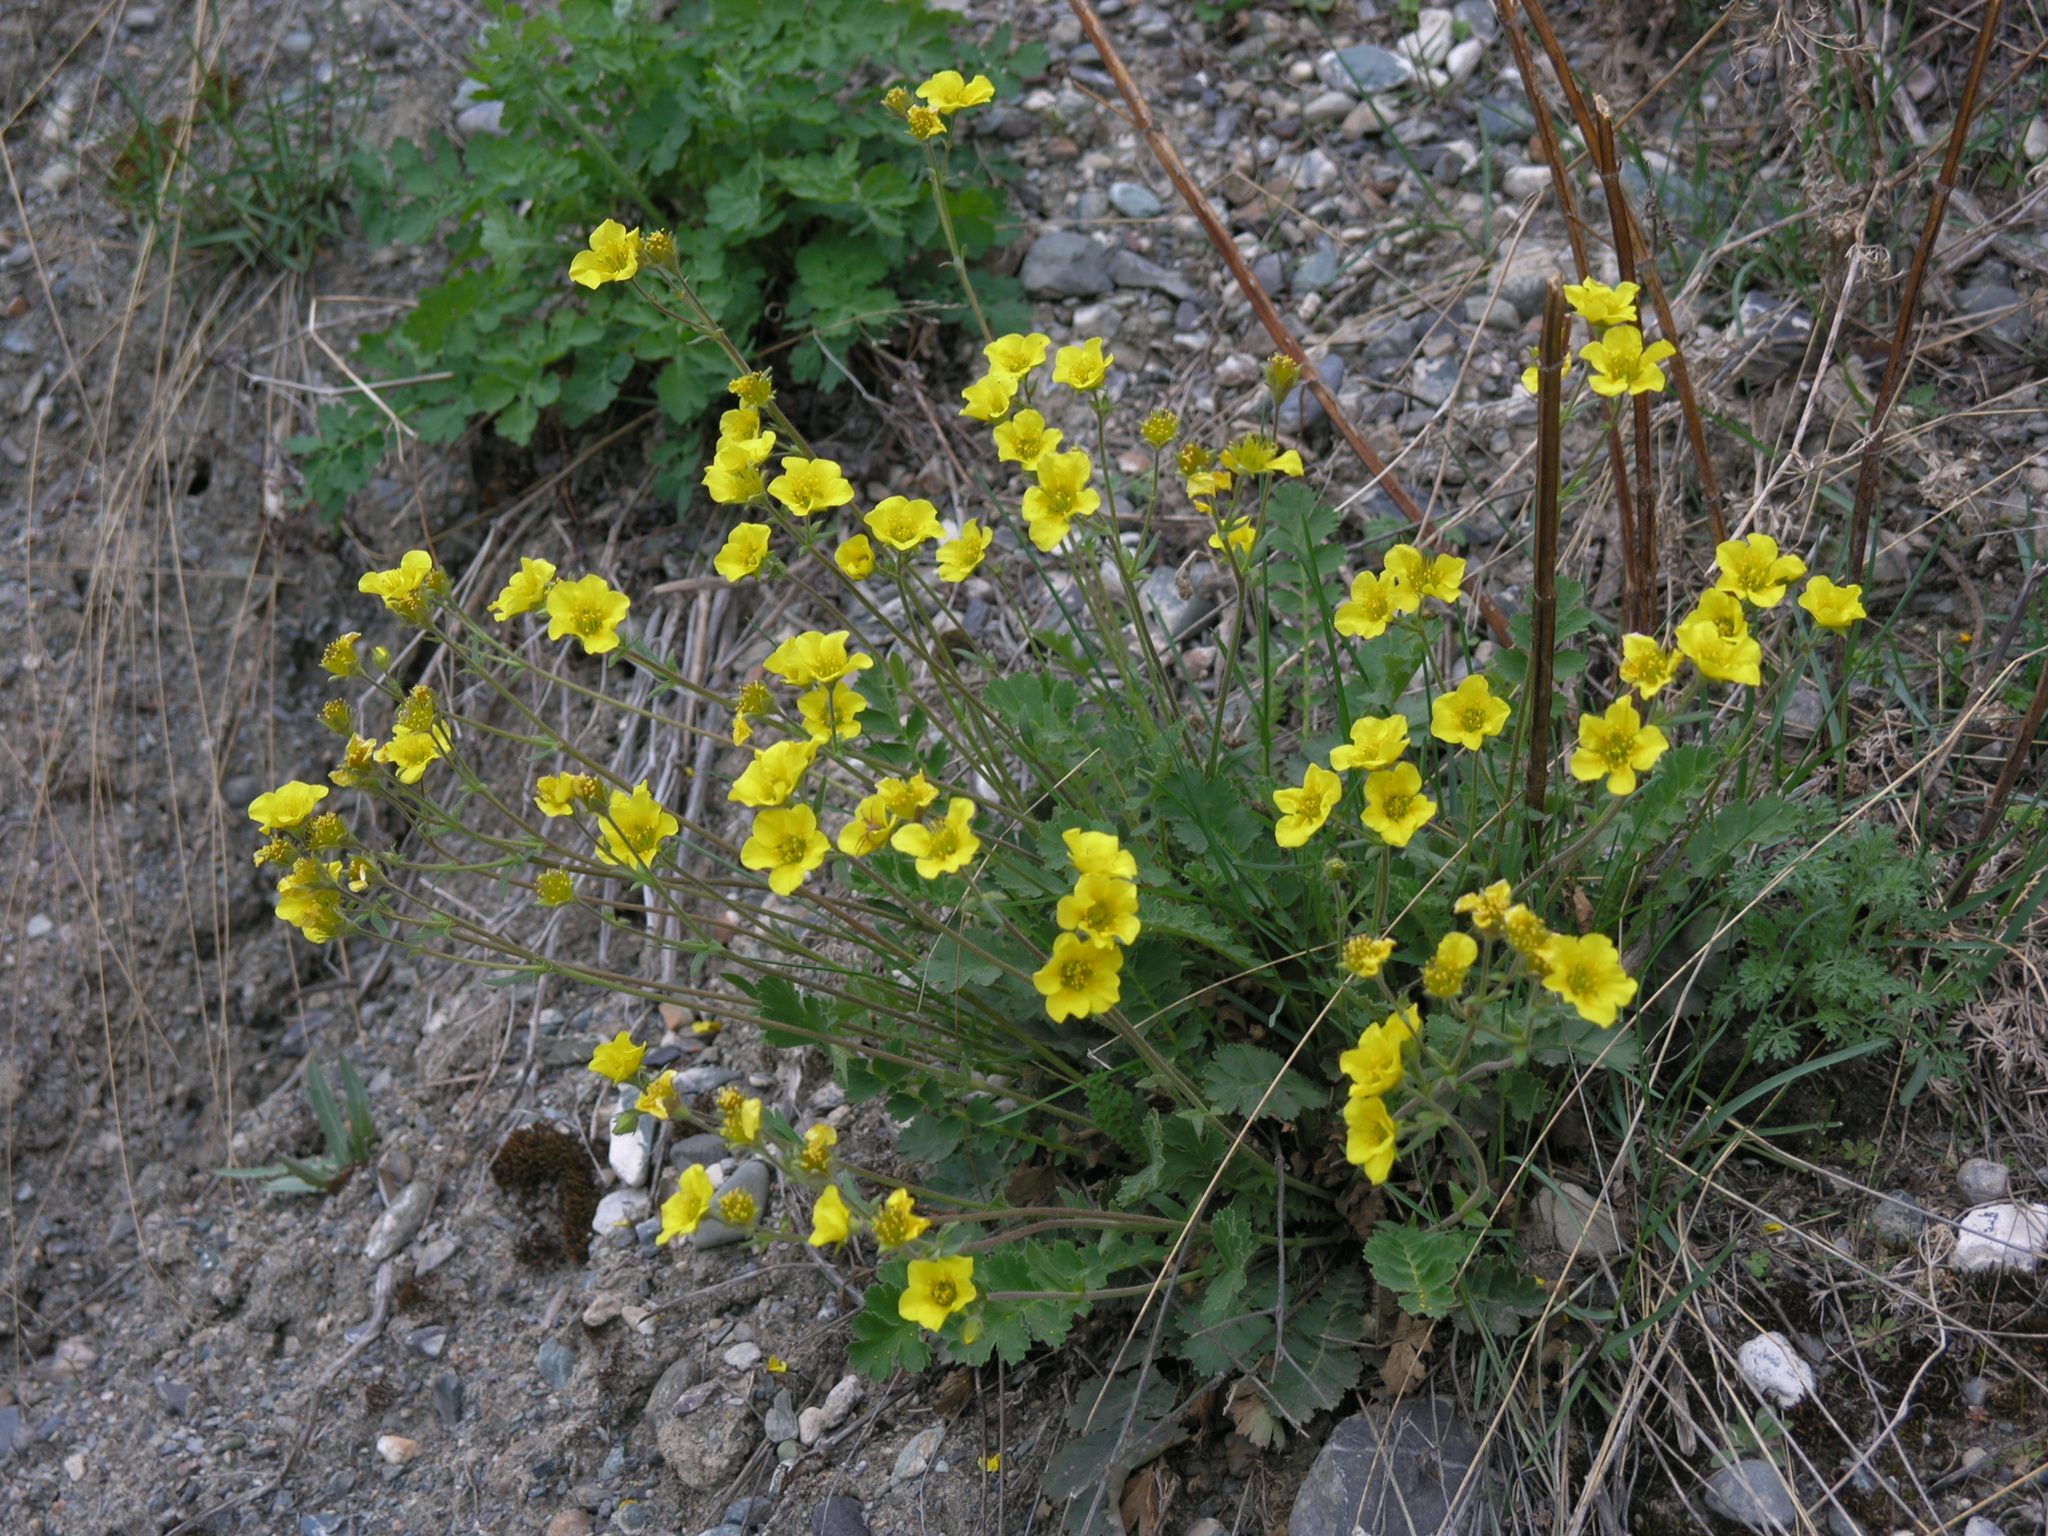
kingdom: Plantae
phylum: Tracheophyta
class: Magnoliopsida
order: Rosales
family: Rosaceae
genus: Geum
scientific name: Geum geoides
